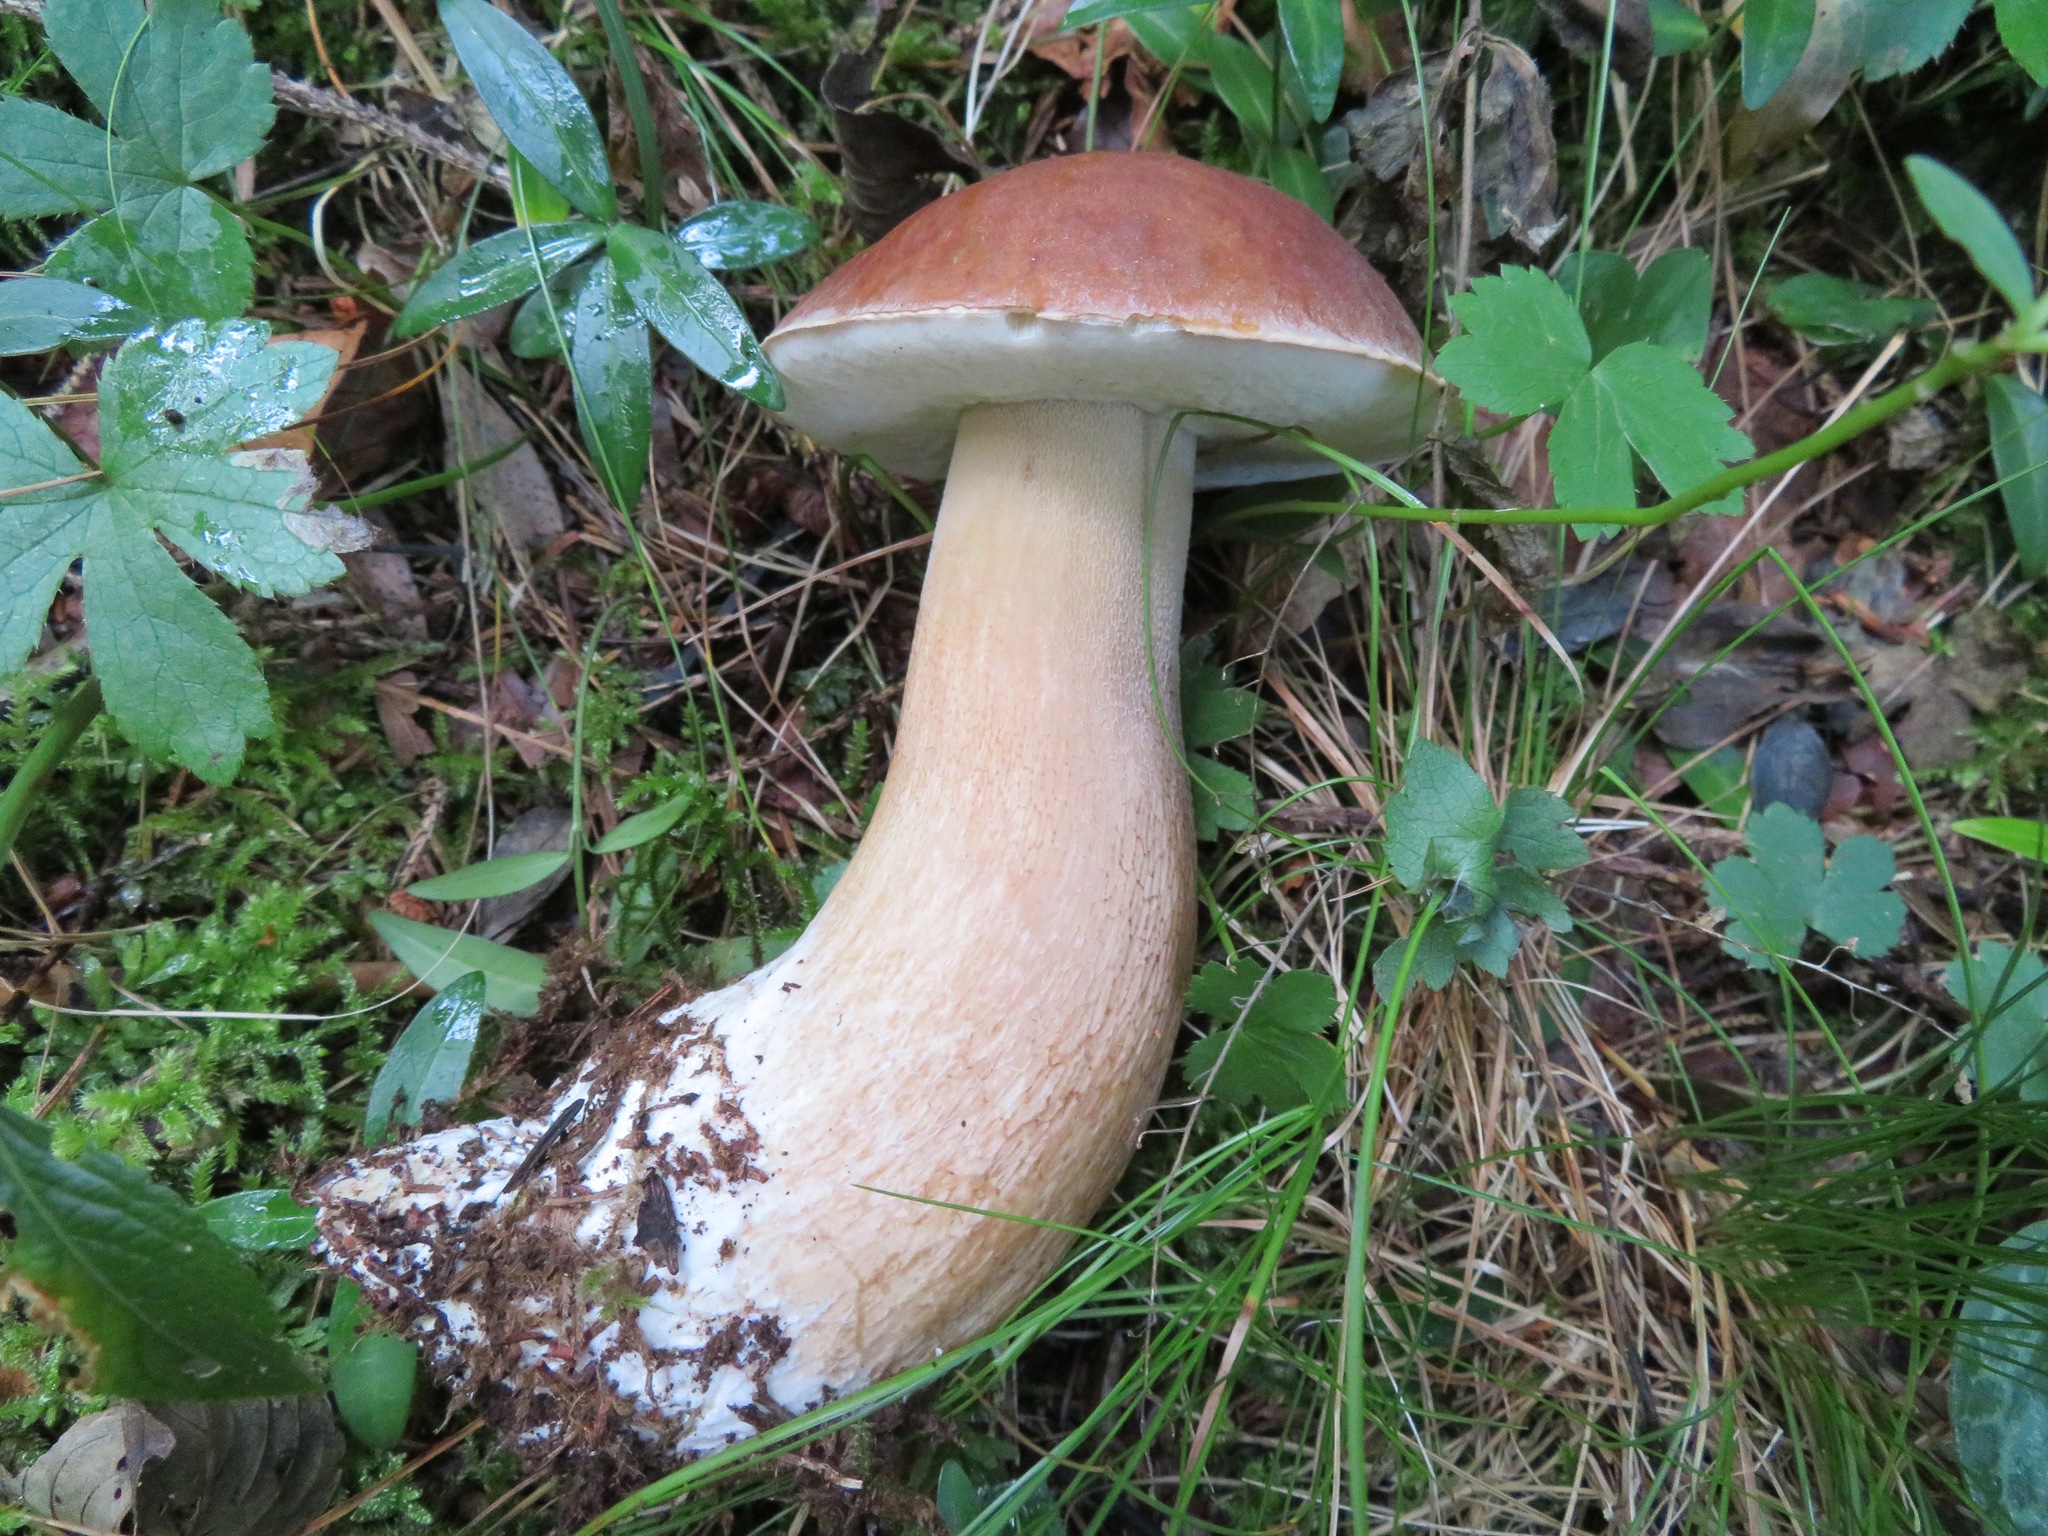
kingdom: Fungi
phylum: Basidiomycota
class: Agaricomycetes
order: Boletales
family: Boletaceae
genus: Boletus
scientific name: Boletus edulis
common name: Cep
